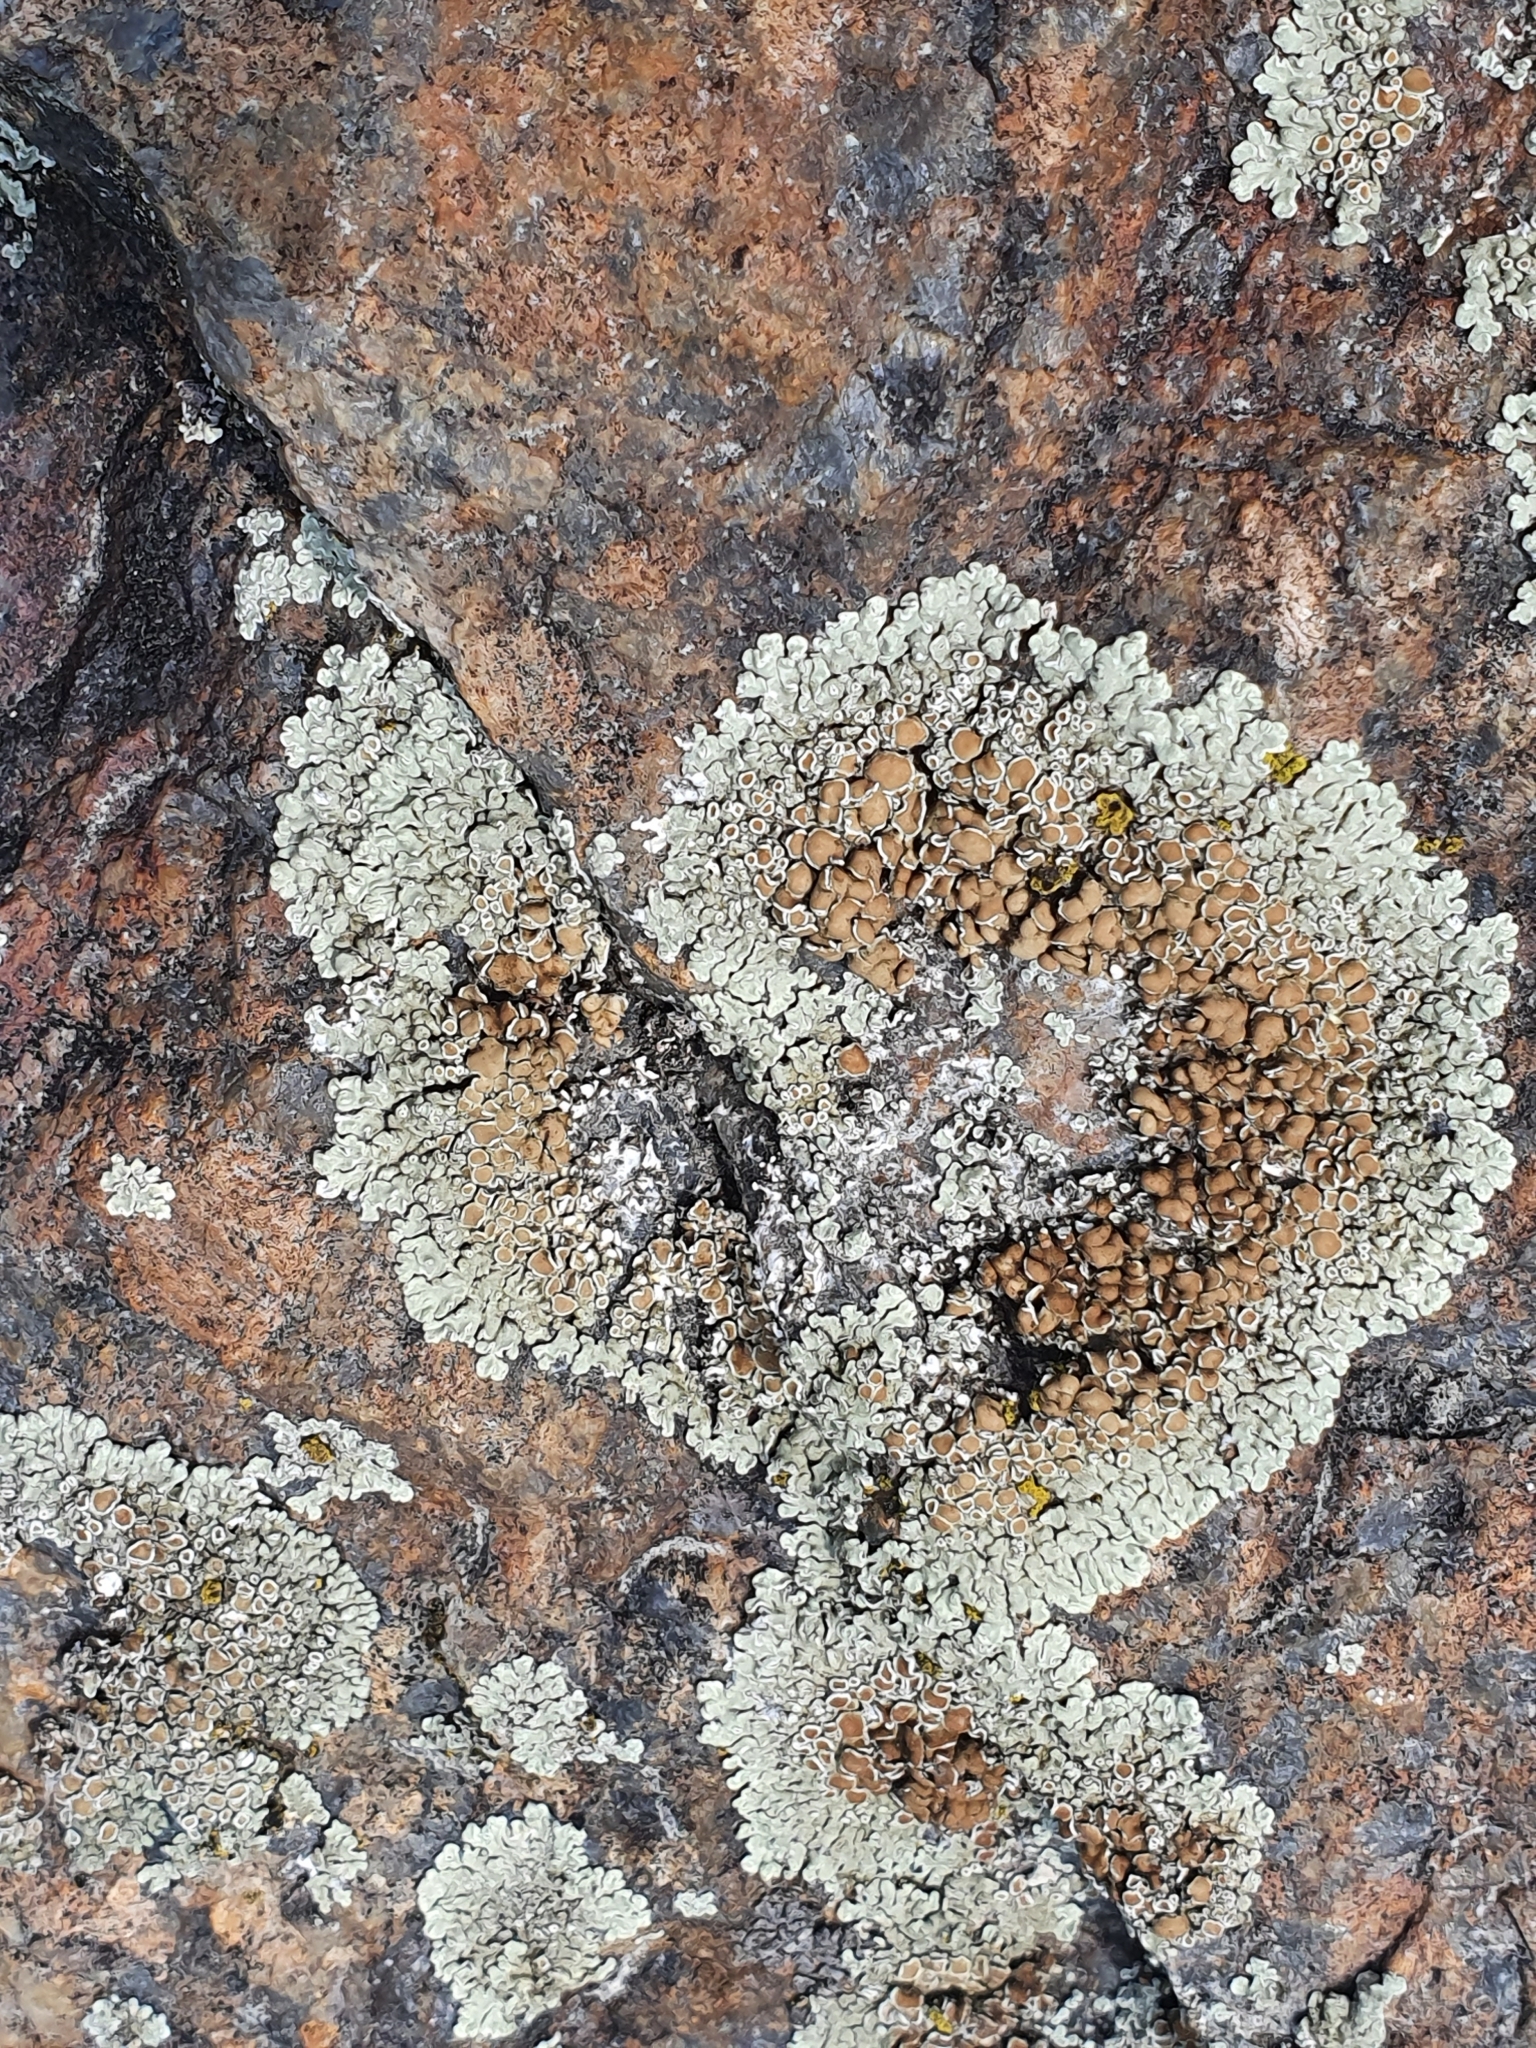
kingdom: Fungi
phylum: Ascomycota
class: Lecanoromycetes
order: Lecanorales
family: Lecanoraceae
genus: Protoparmeliopsis
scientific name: Protoparmeliopsis muralis
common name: Stonewall rim lichen
